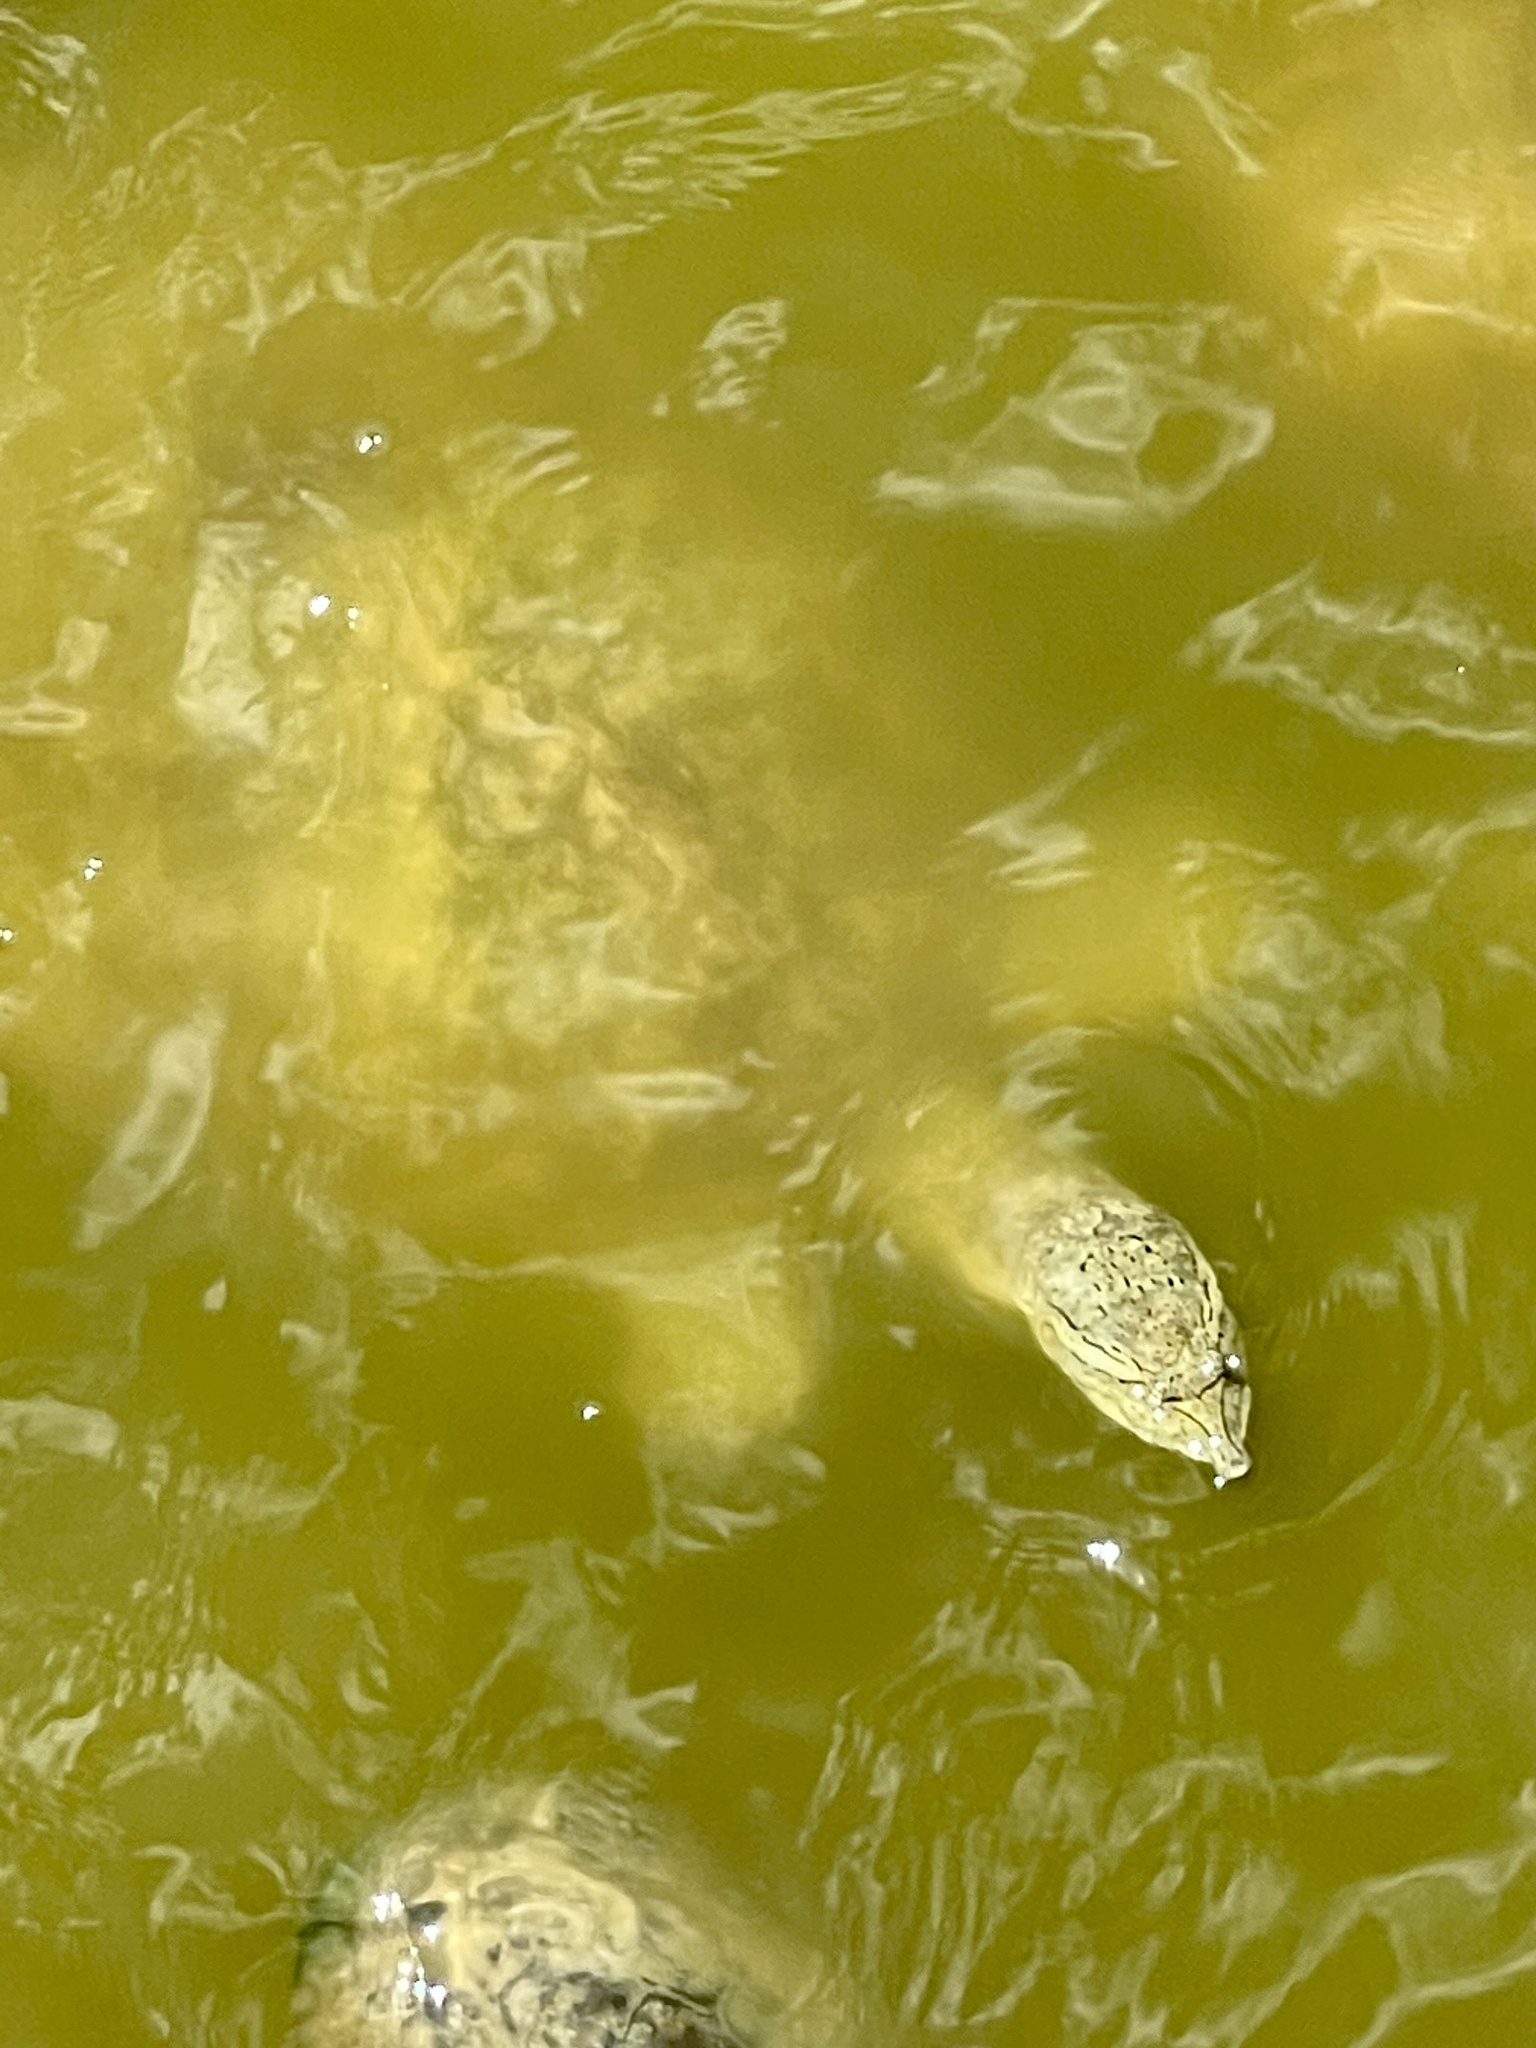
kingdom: Animalia
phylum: Chordata
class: Testudines
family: Trionychidae
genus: Apalone
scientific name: Apalone spinifera
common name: Spiny softshell turtle
